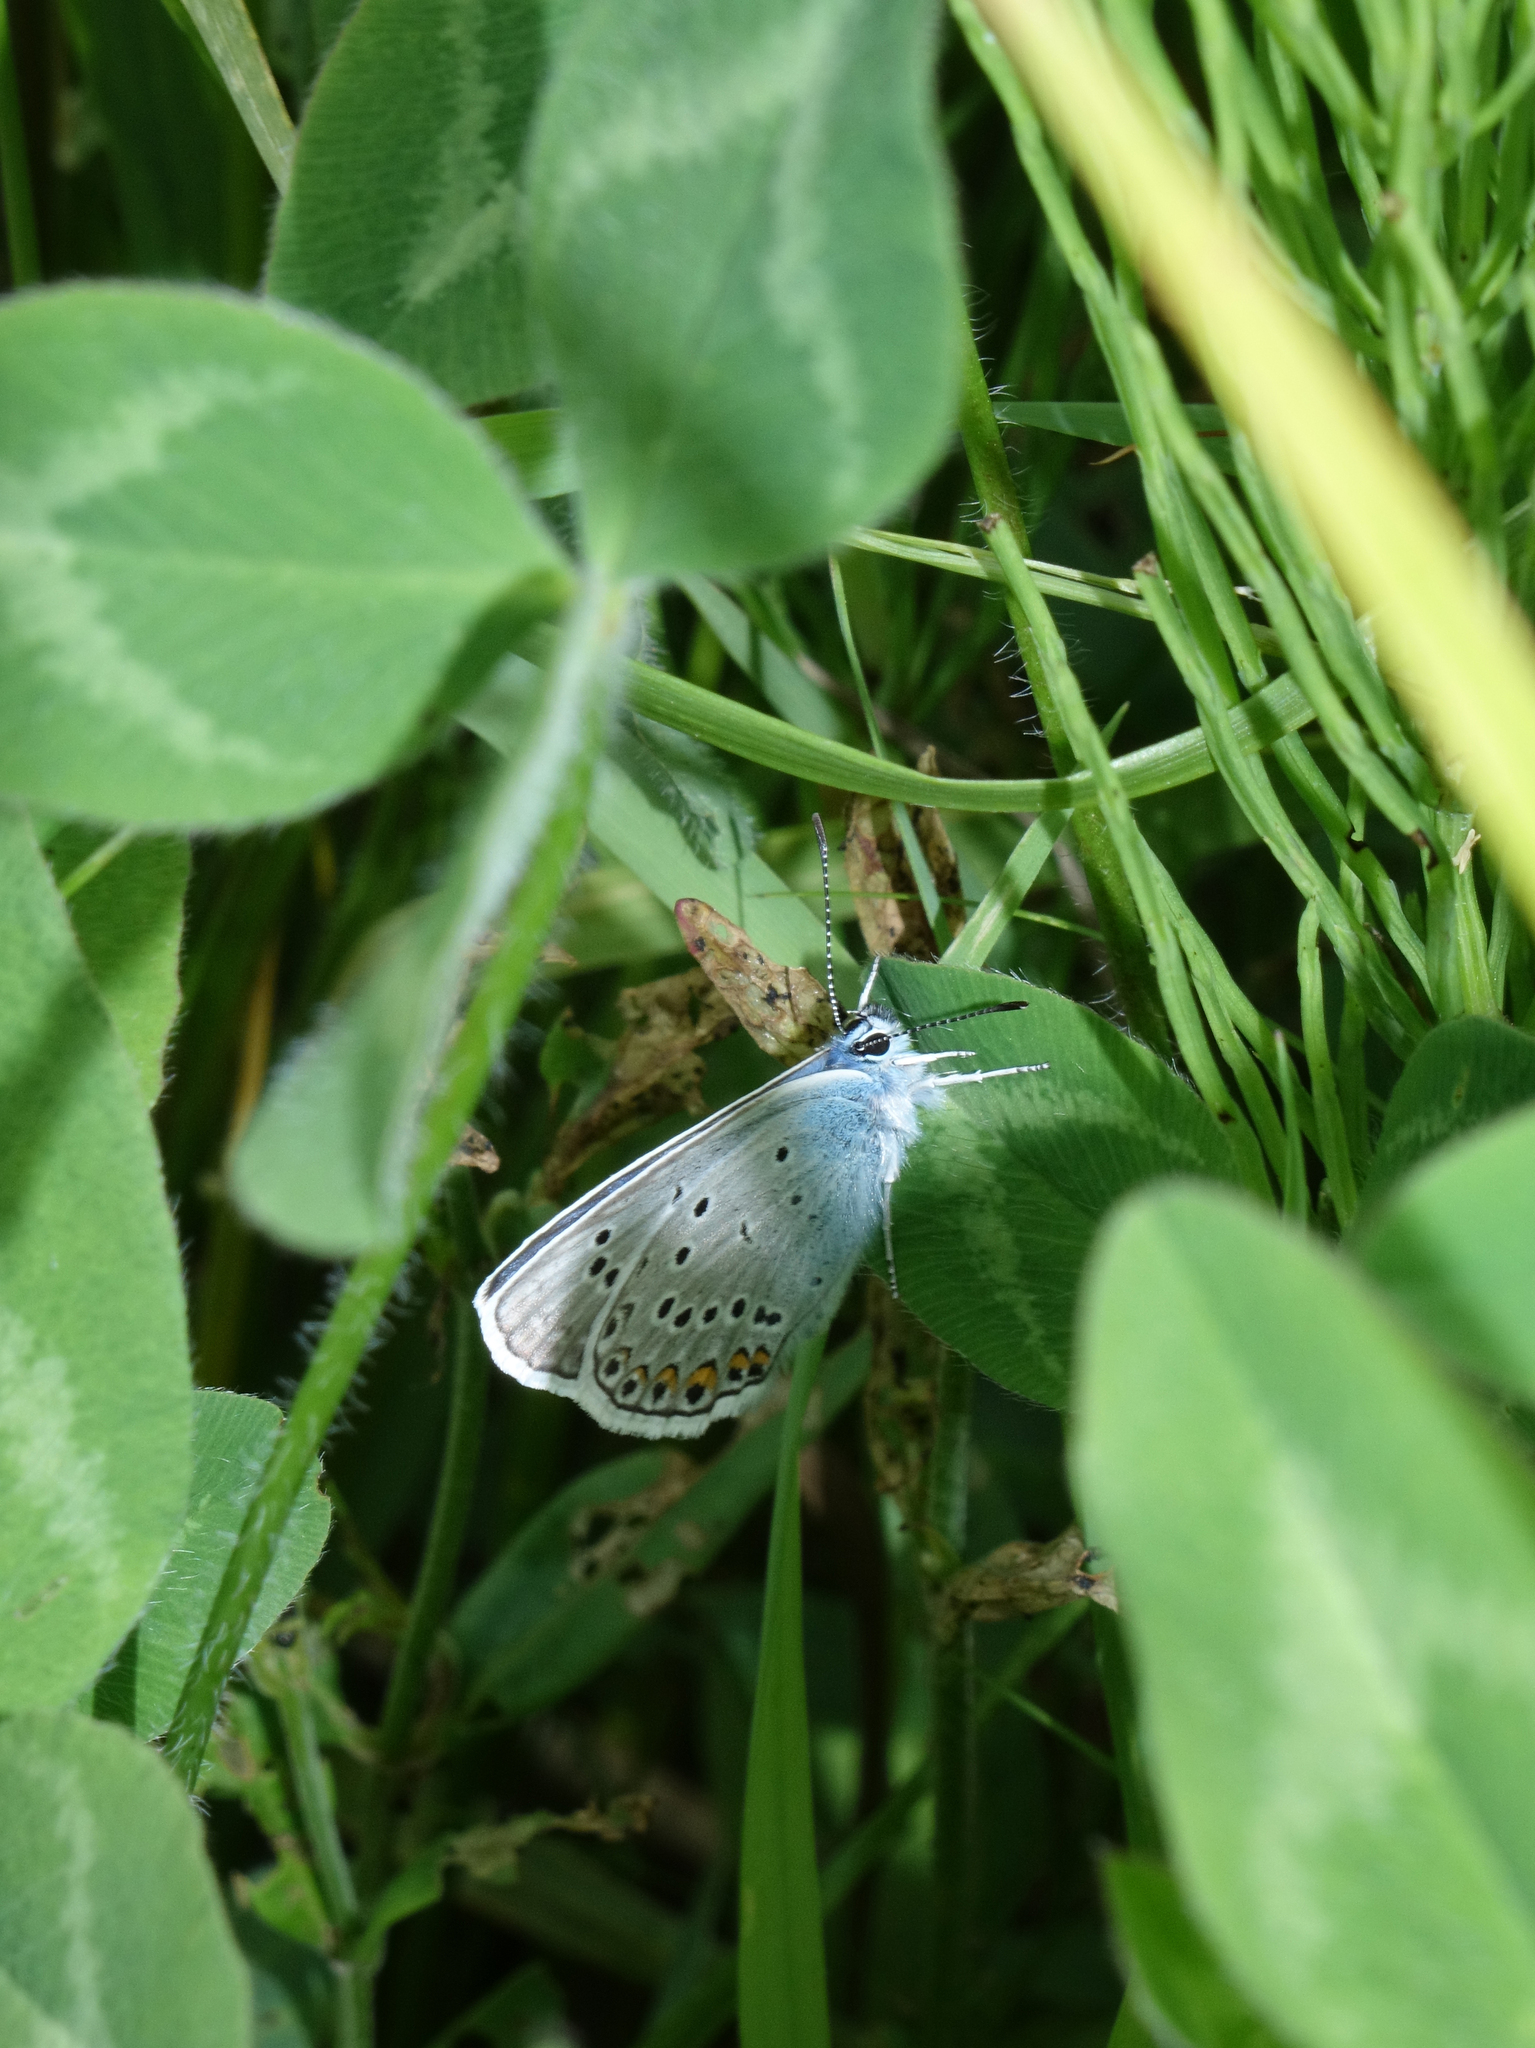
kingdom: Animalia
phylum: Arthropoda
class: Insecta
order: Lepidoptera
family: Lycaenidae
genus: Plebejus
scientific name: Plebejus amanda
